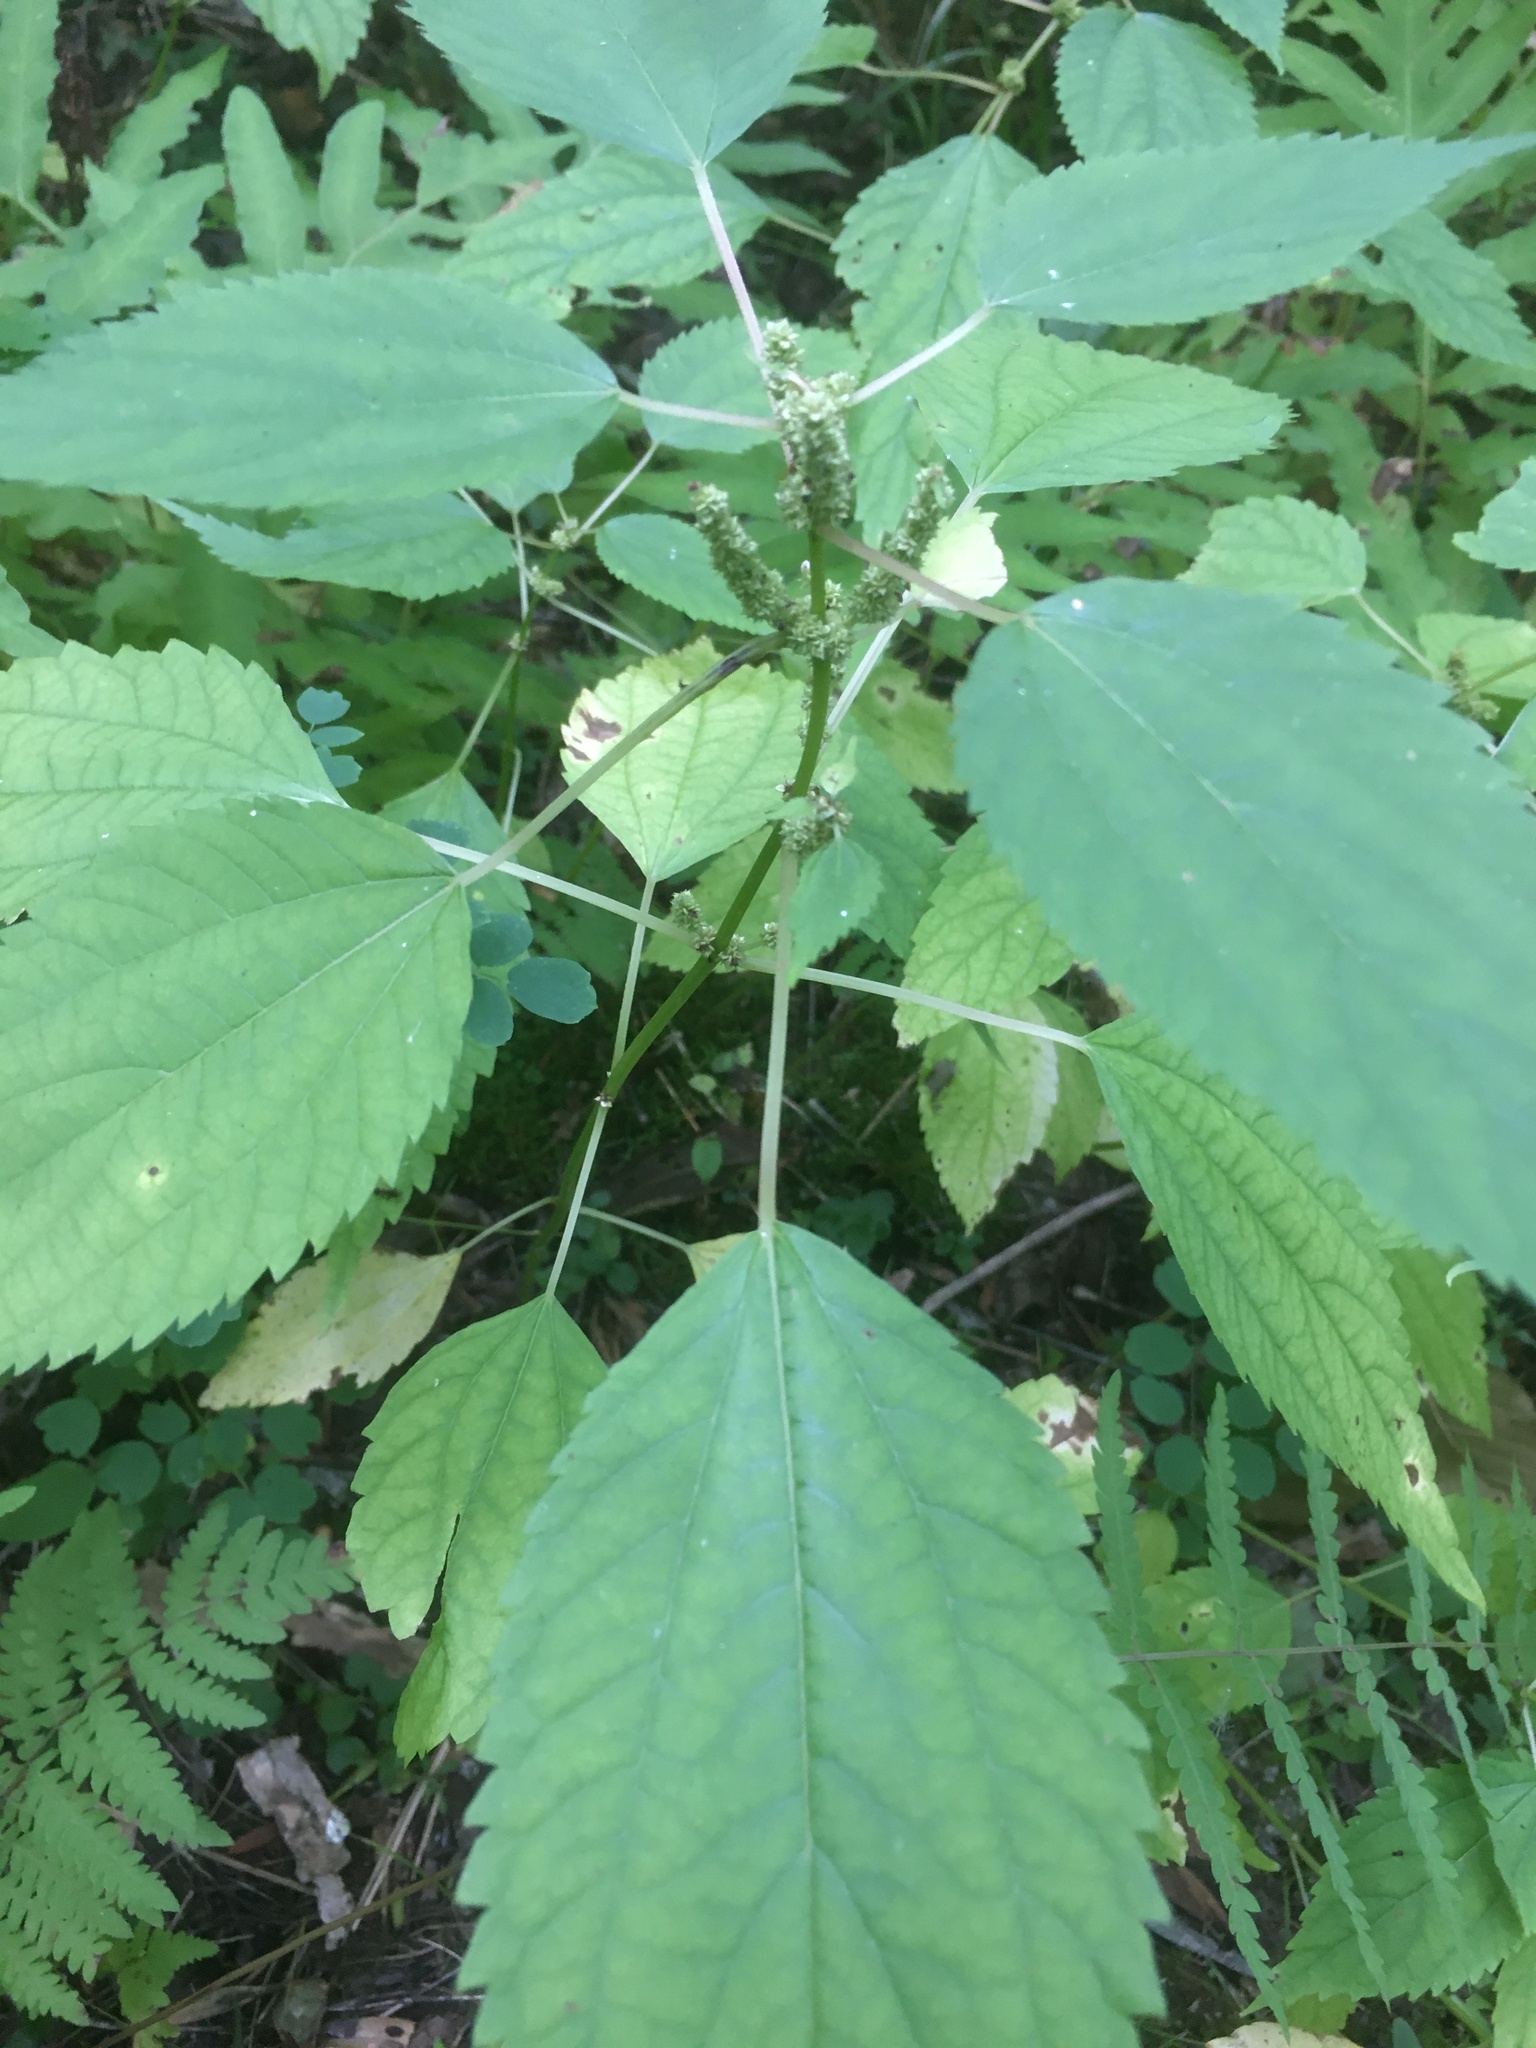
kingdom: Plantae
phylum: Tracheophyta
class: Magnoliopsida
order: Rosales
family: Urticaceae
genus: Boehmeria
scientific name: Boehmeria cylindrica
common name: Bog-hemp
